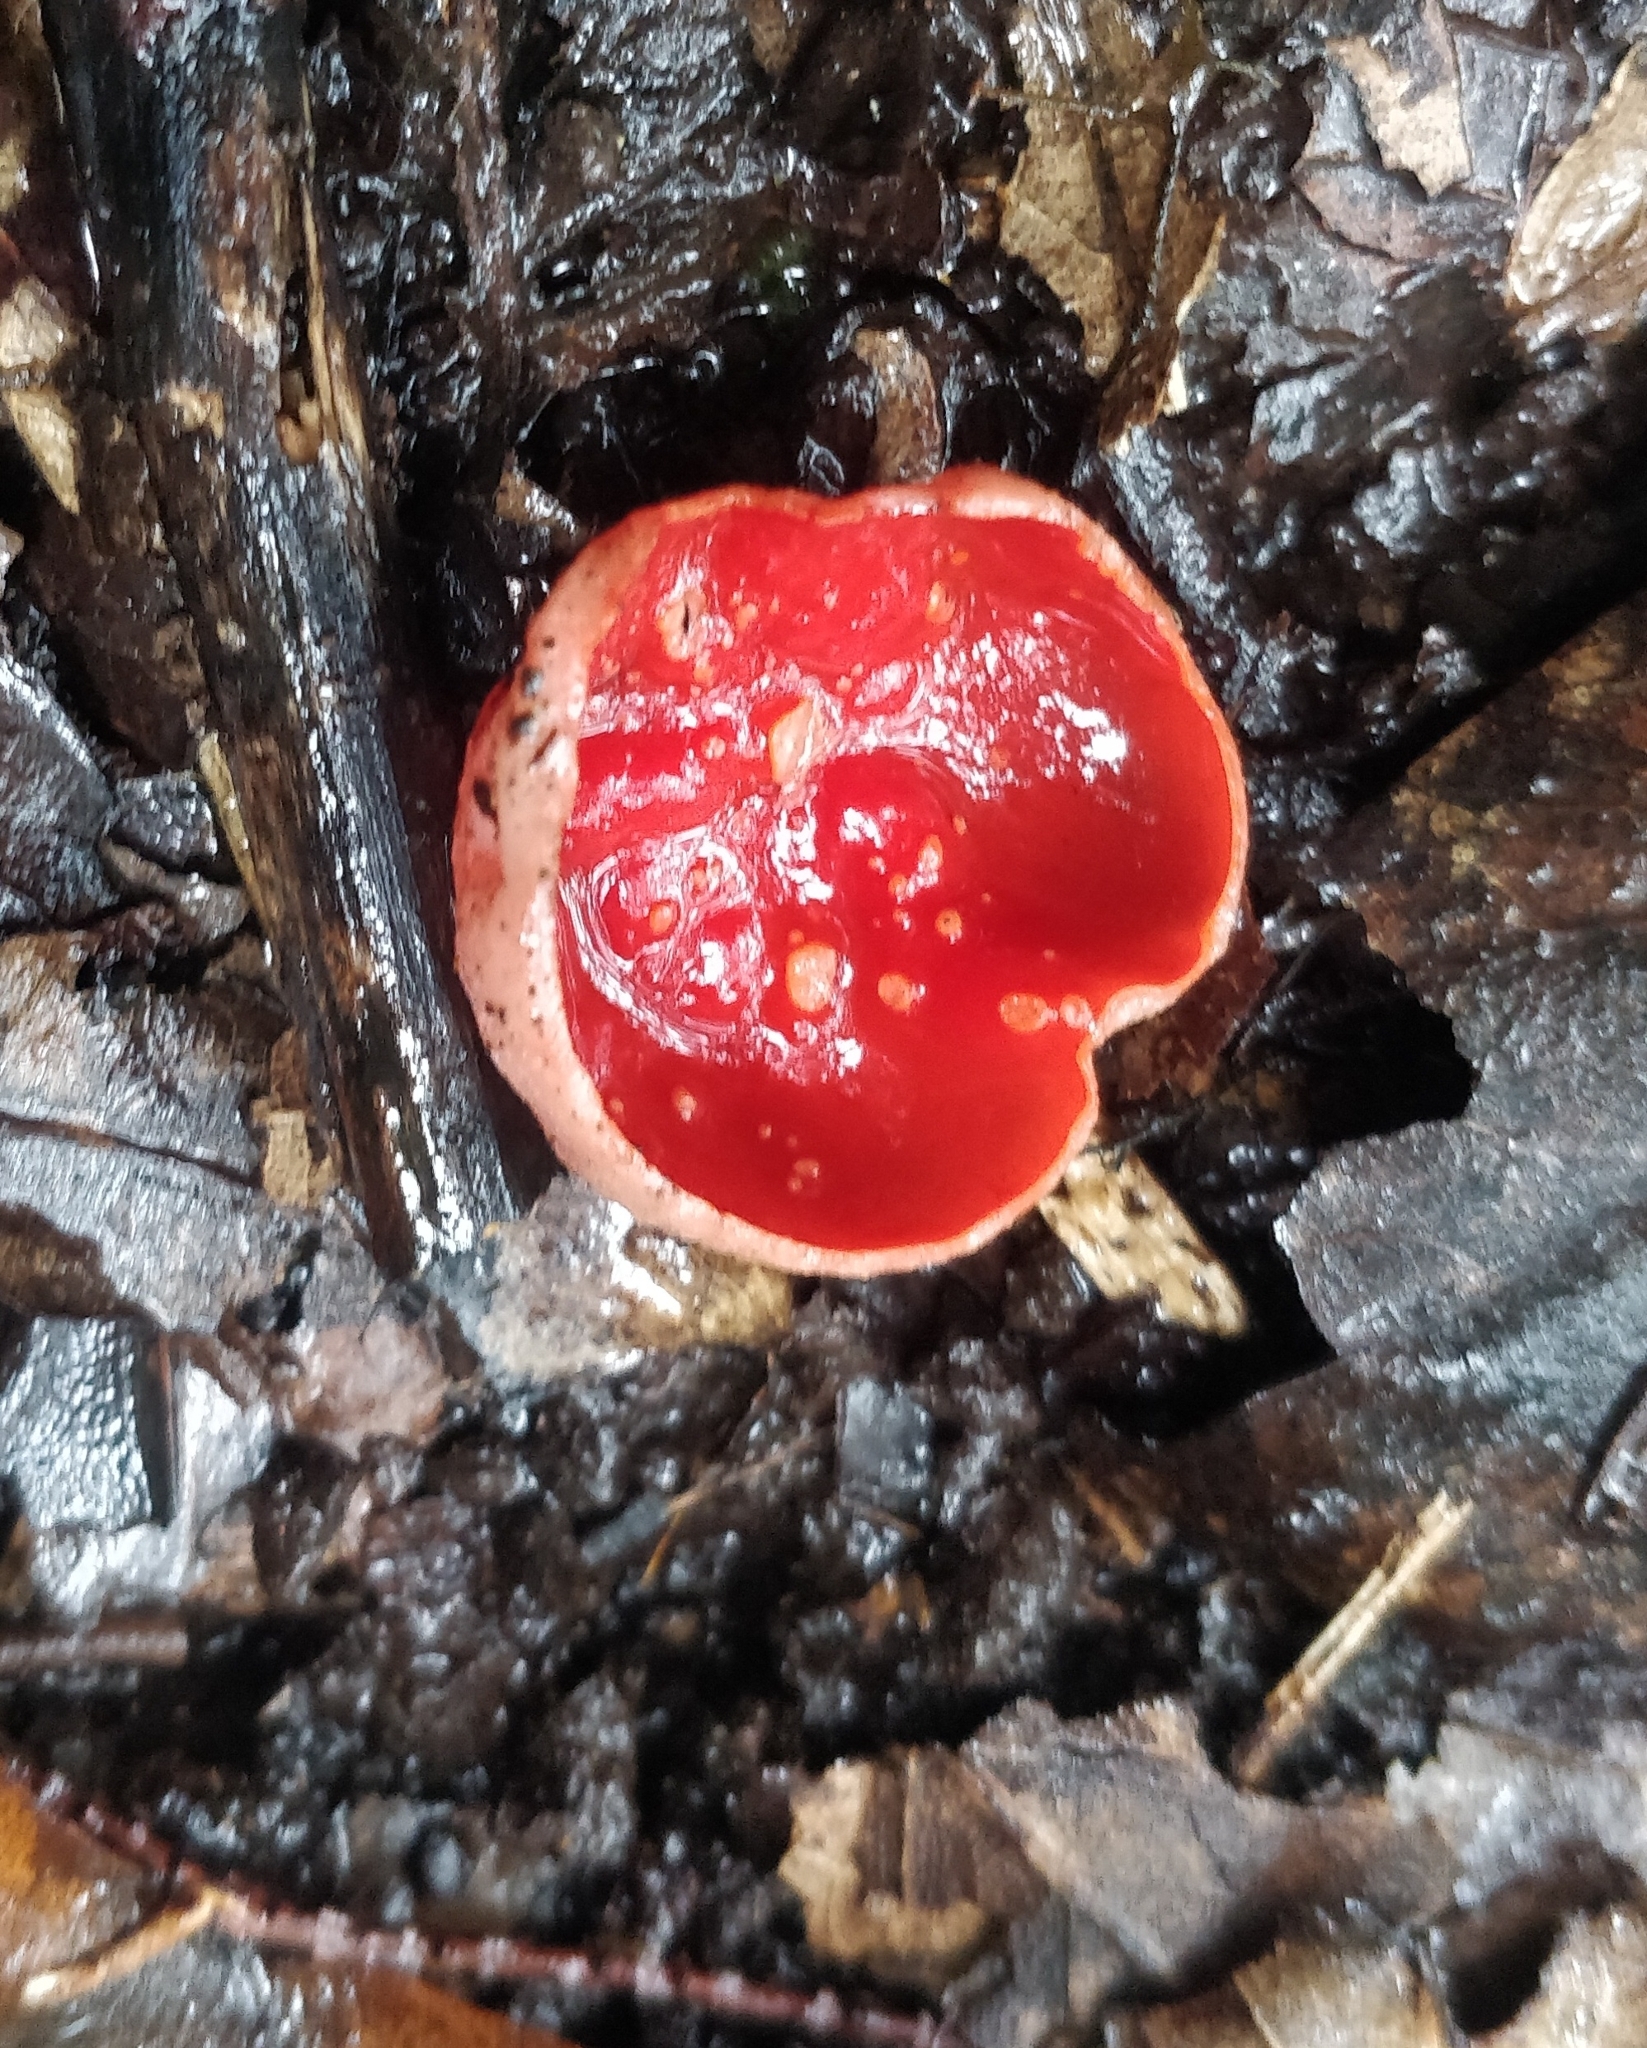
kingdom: Fungi
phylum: Ascomycota
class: Pezizomycetes
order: Pezizales
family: Sarcoscyphaceae
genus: Sarcoscypha
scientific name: Sarcoscypha macaronesica
